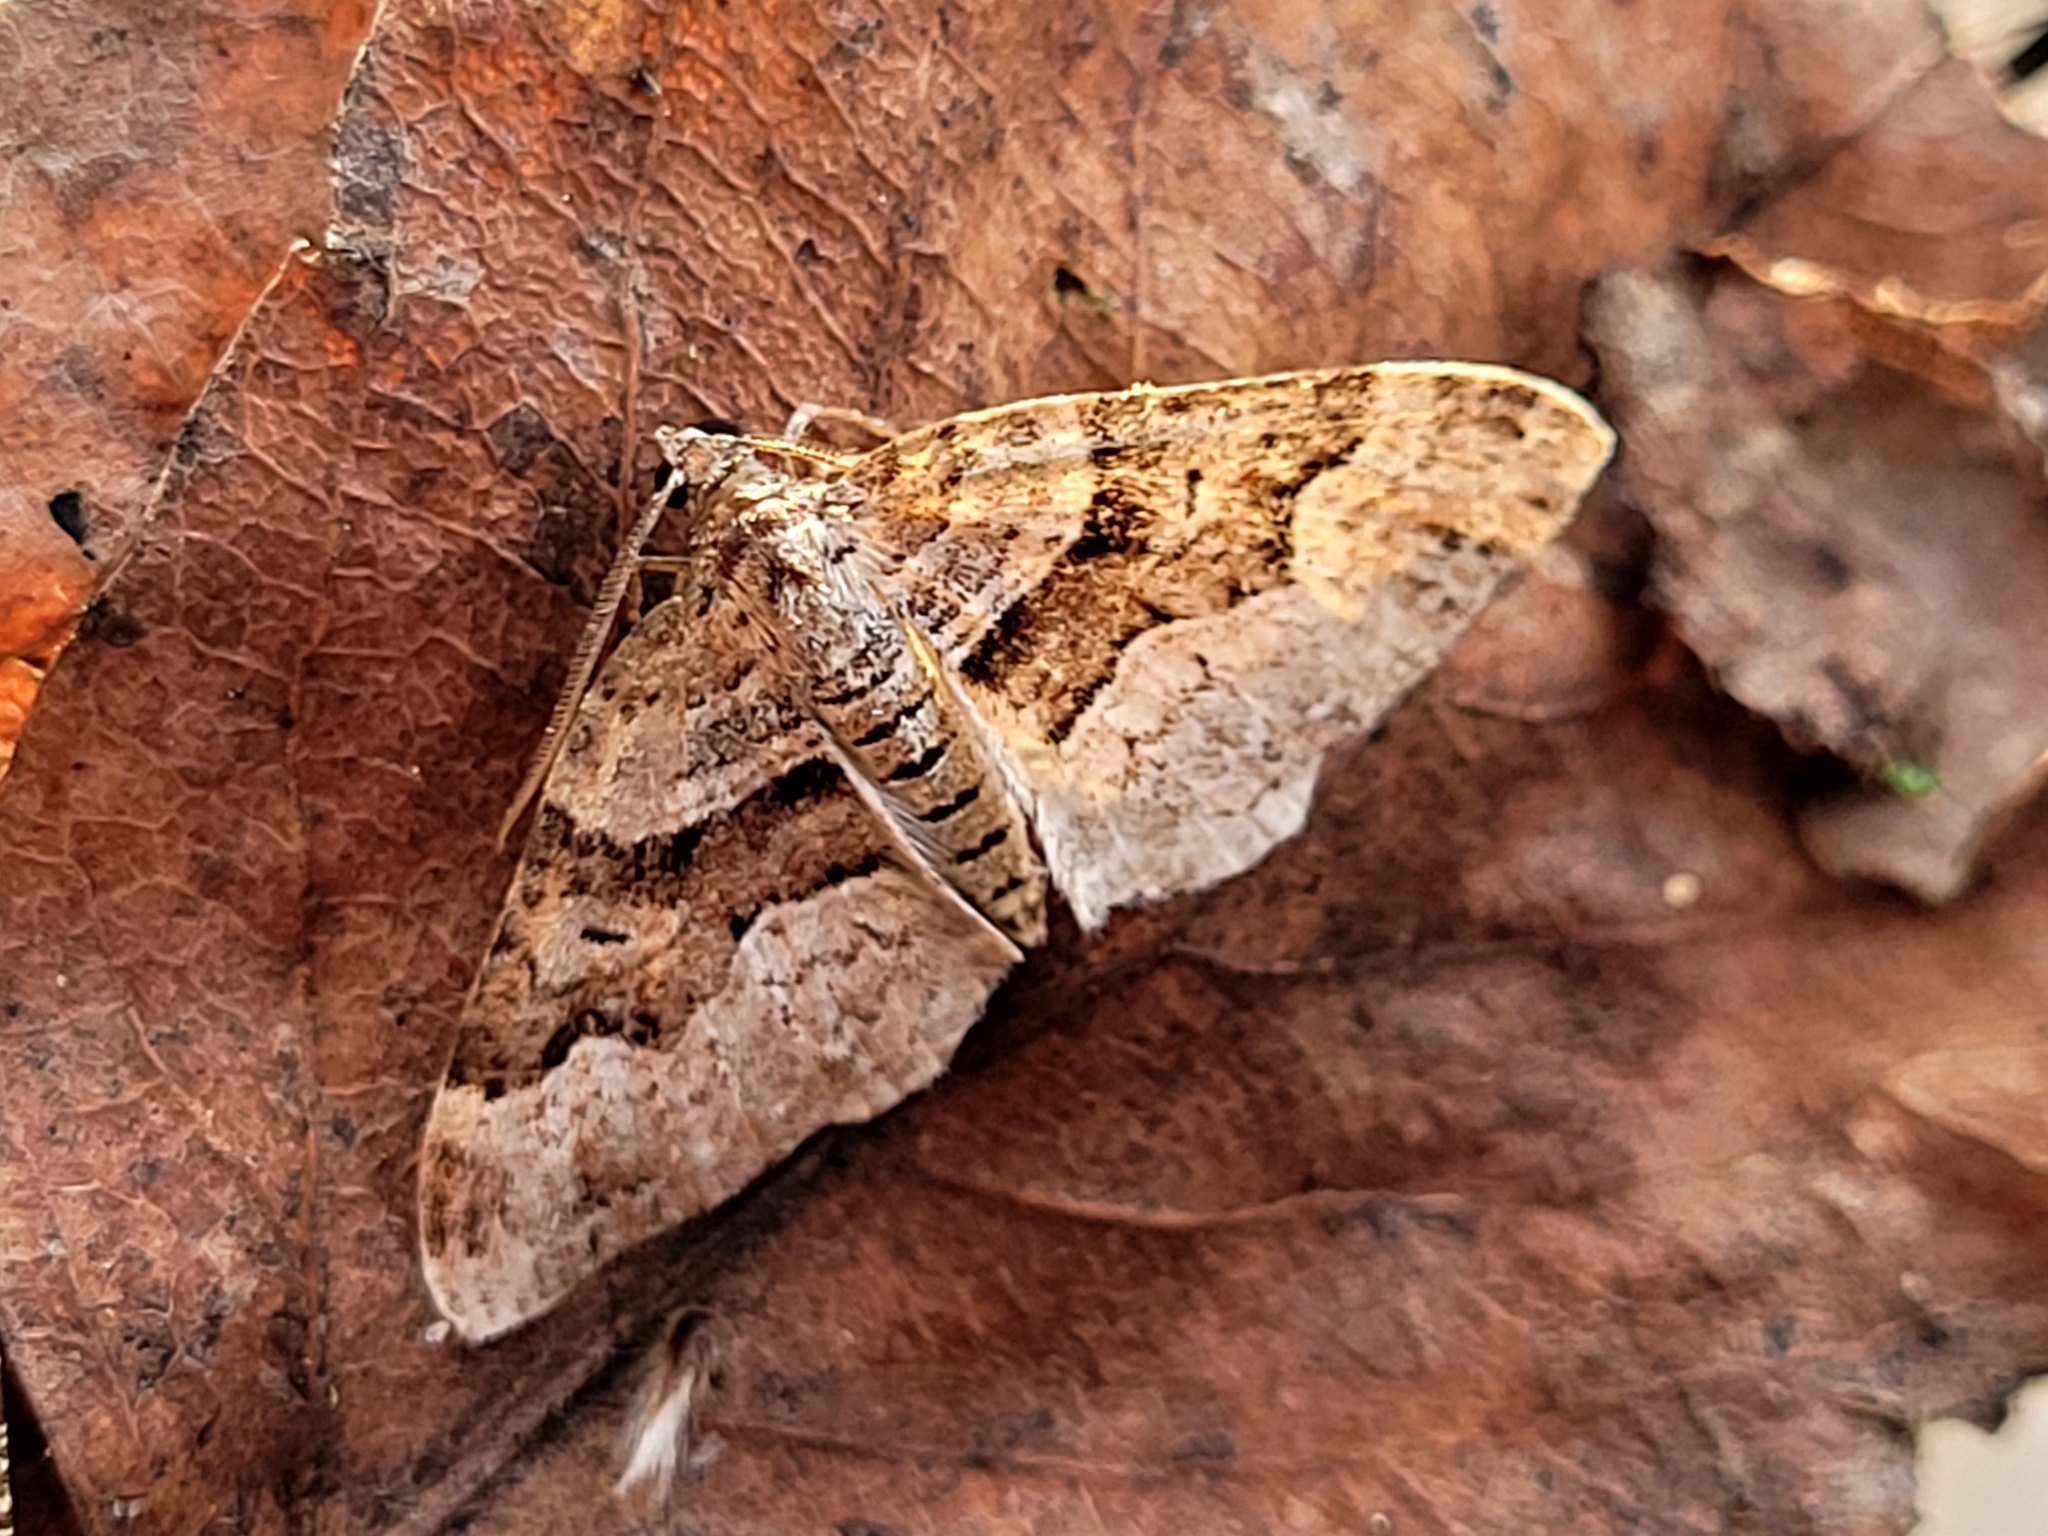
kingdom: Animalia
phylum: Arthropoda
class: Insecta
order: Lepidoptera
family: Geometridae
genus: Xanthorhoe
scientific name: Xanthorhoe lacustrata
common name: Toothed brown carpet
